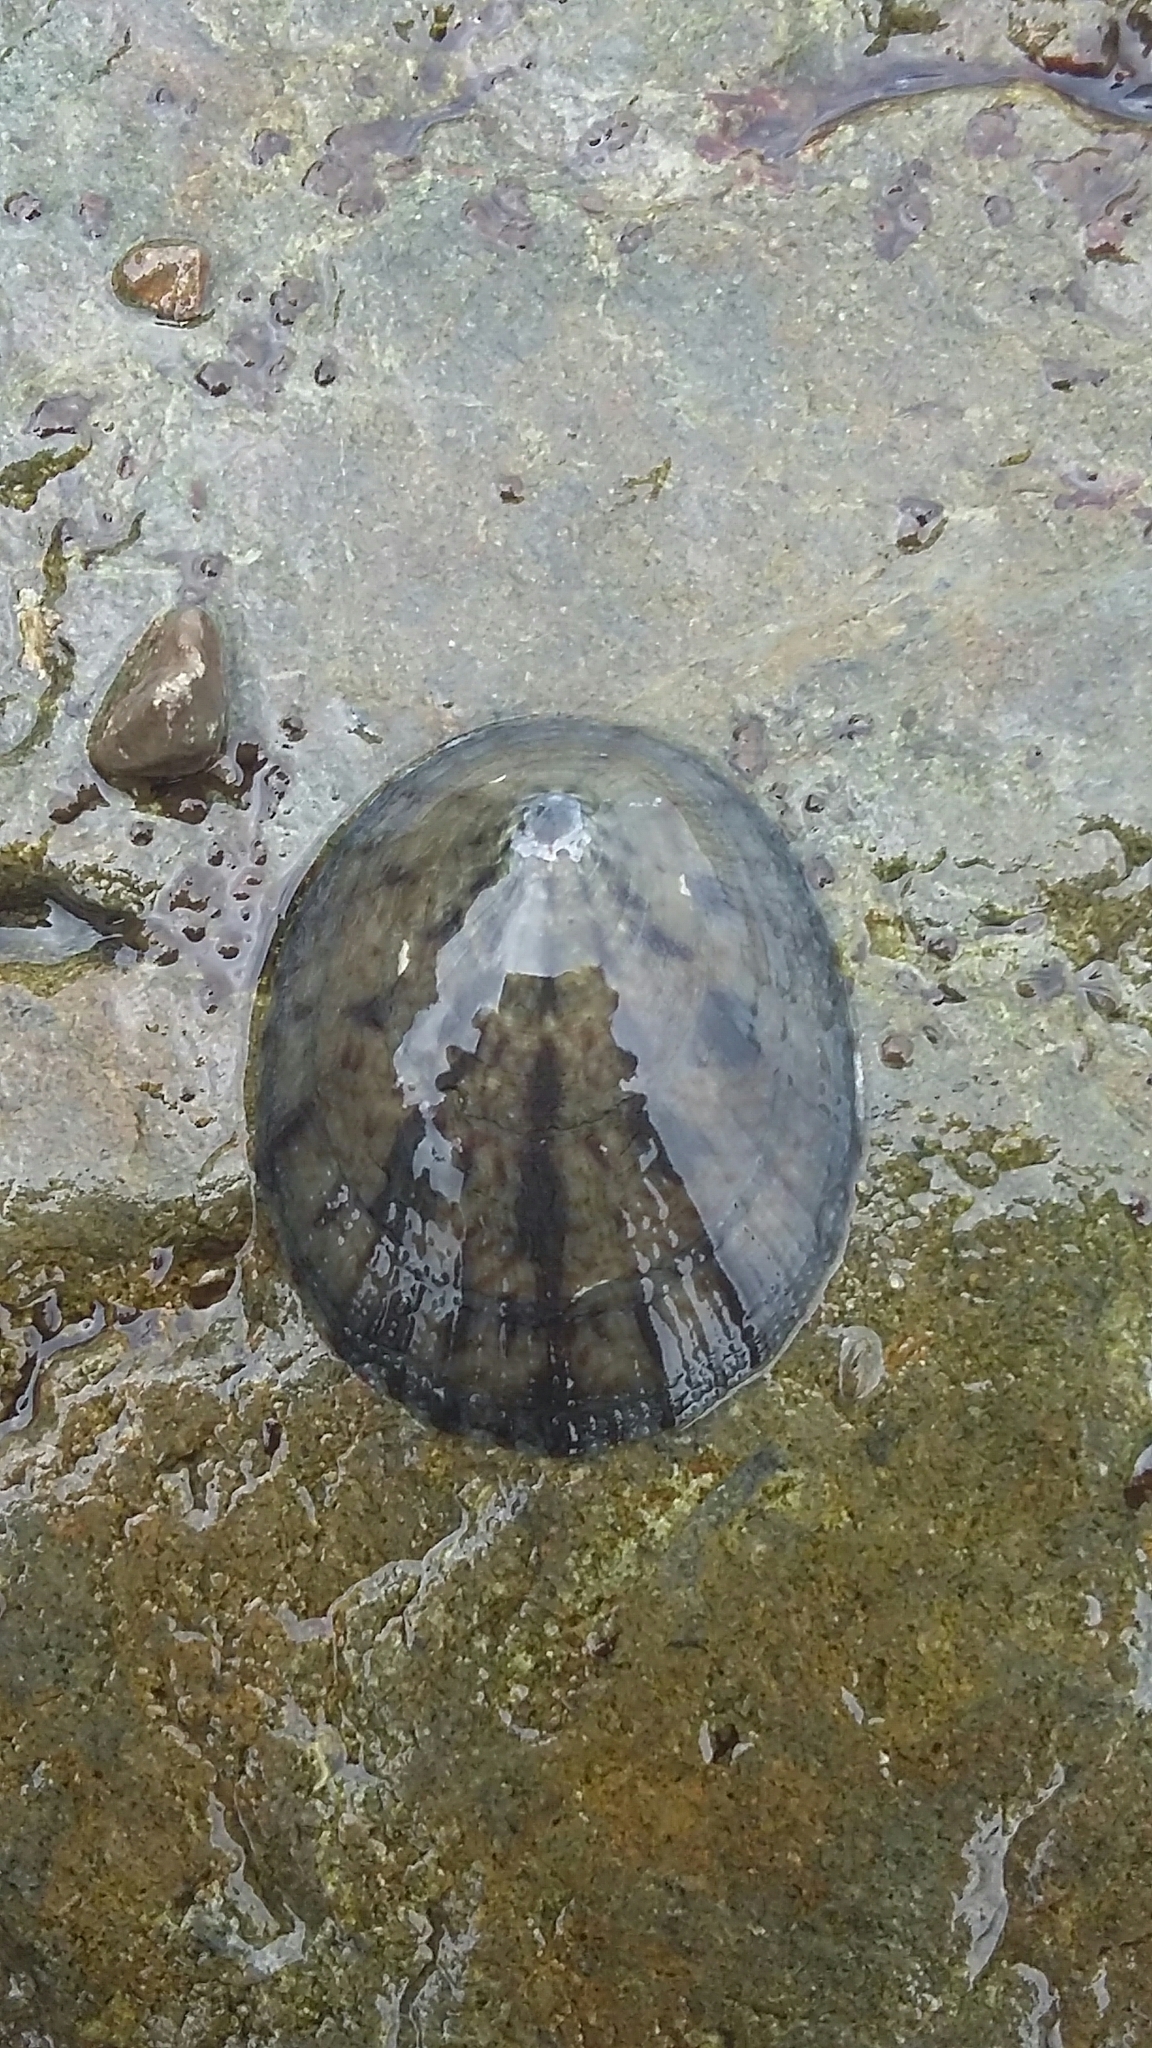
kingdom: Animalia
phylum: Mollusca
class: Gastropoda
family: Nacellidae
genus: Cellana
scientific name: Cellana radians
